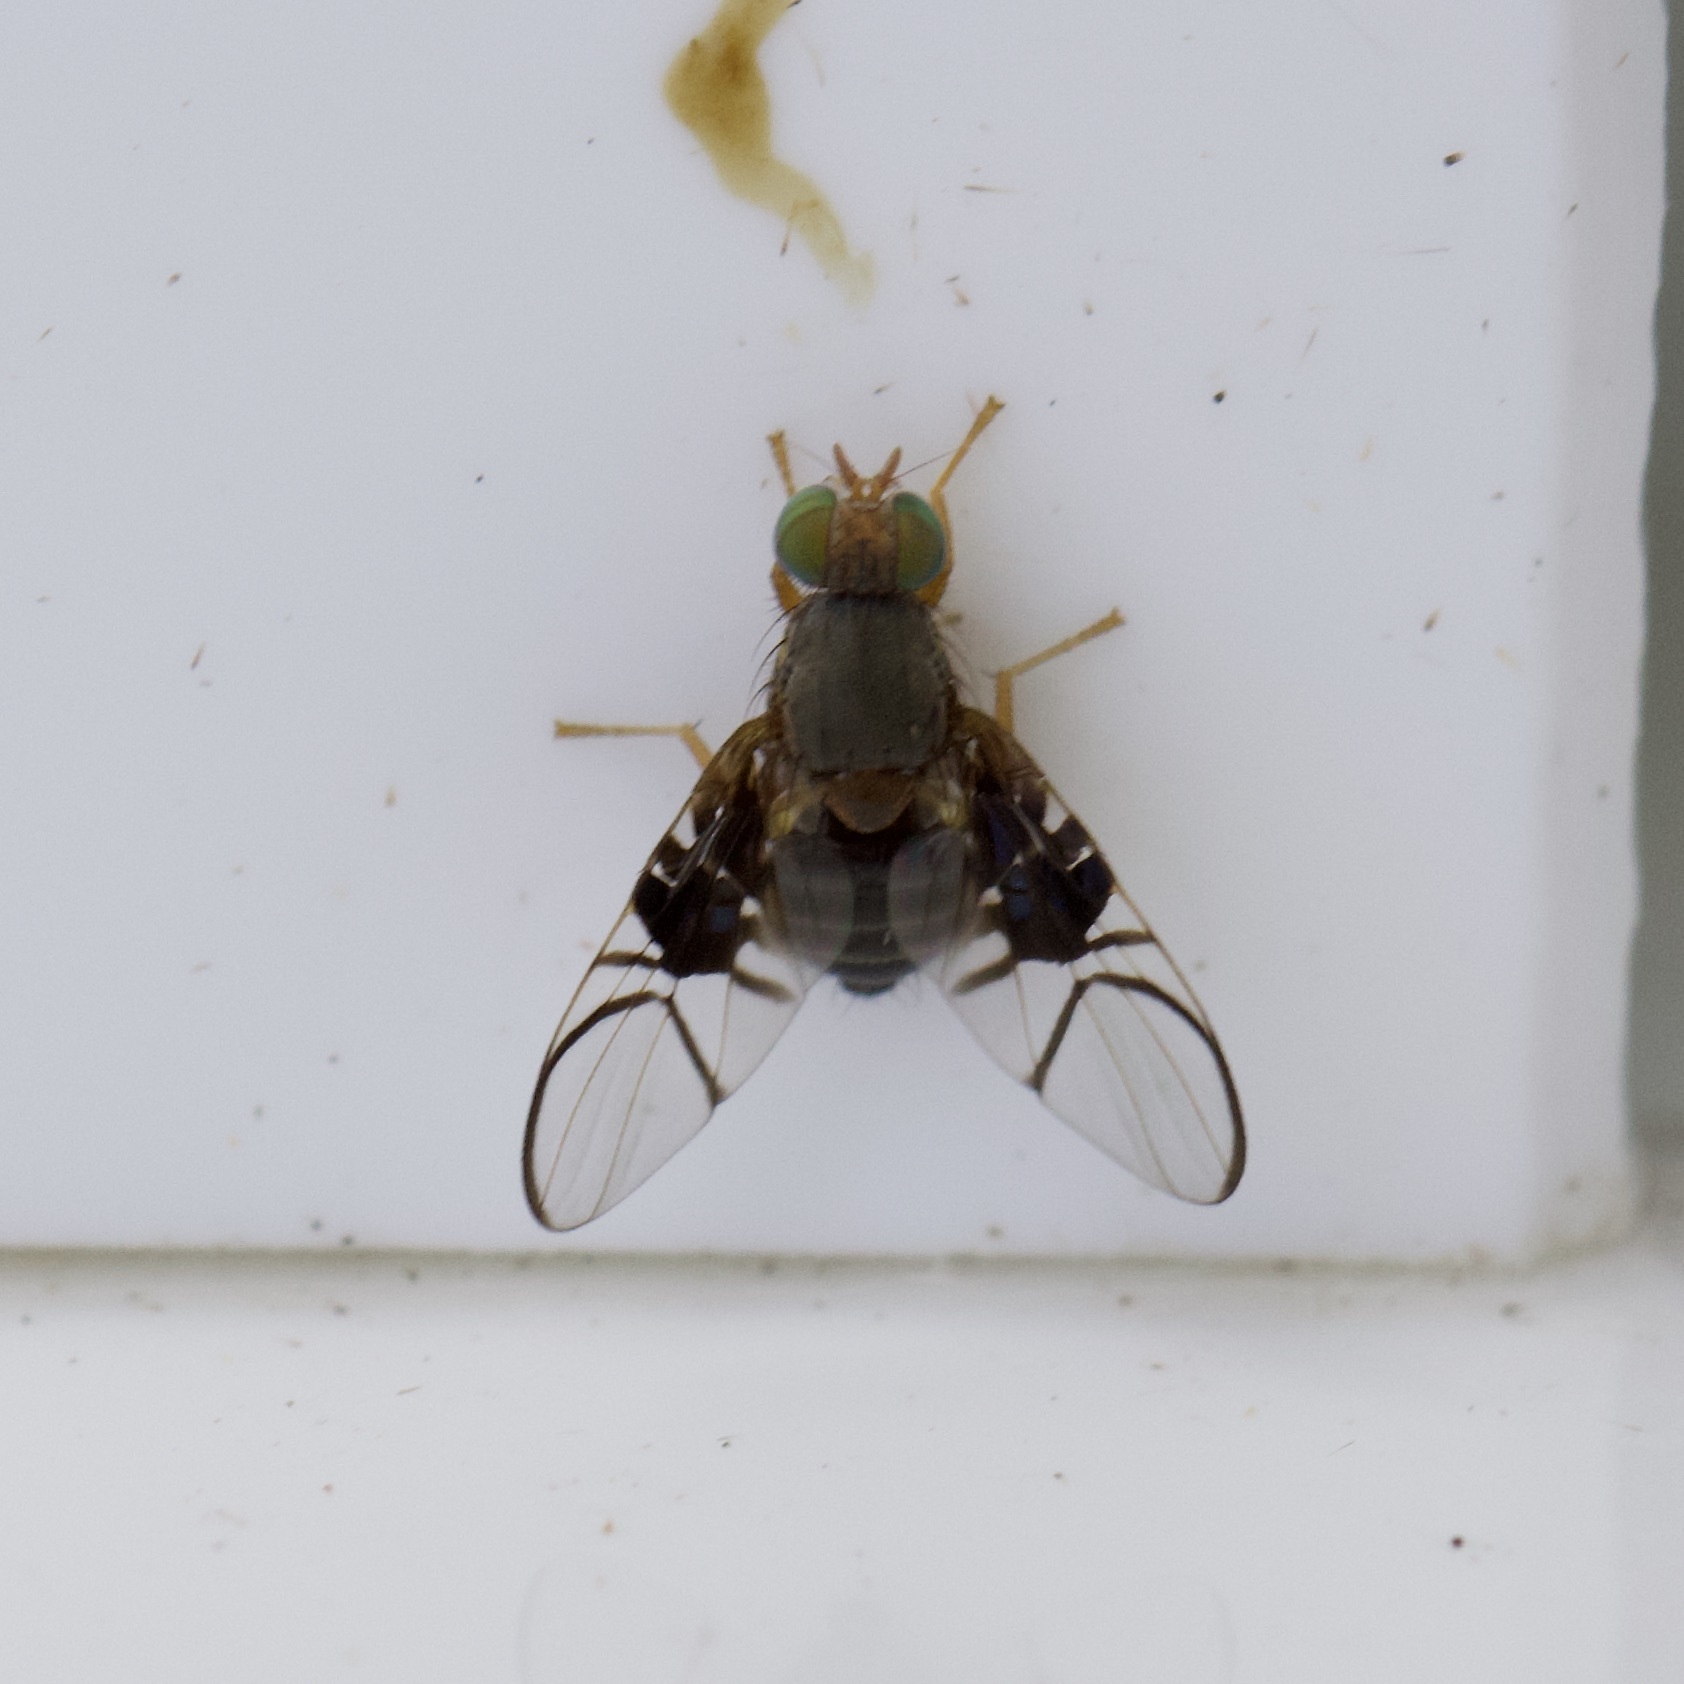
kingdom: Animalia
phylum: Arthropoda
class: Insecta
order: Diptera
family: Tephritidae
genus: Anomoia
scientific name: Anomoia purmunda
